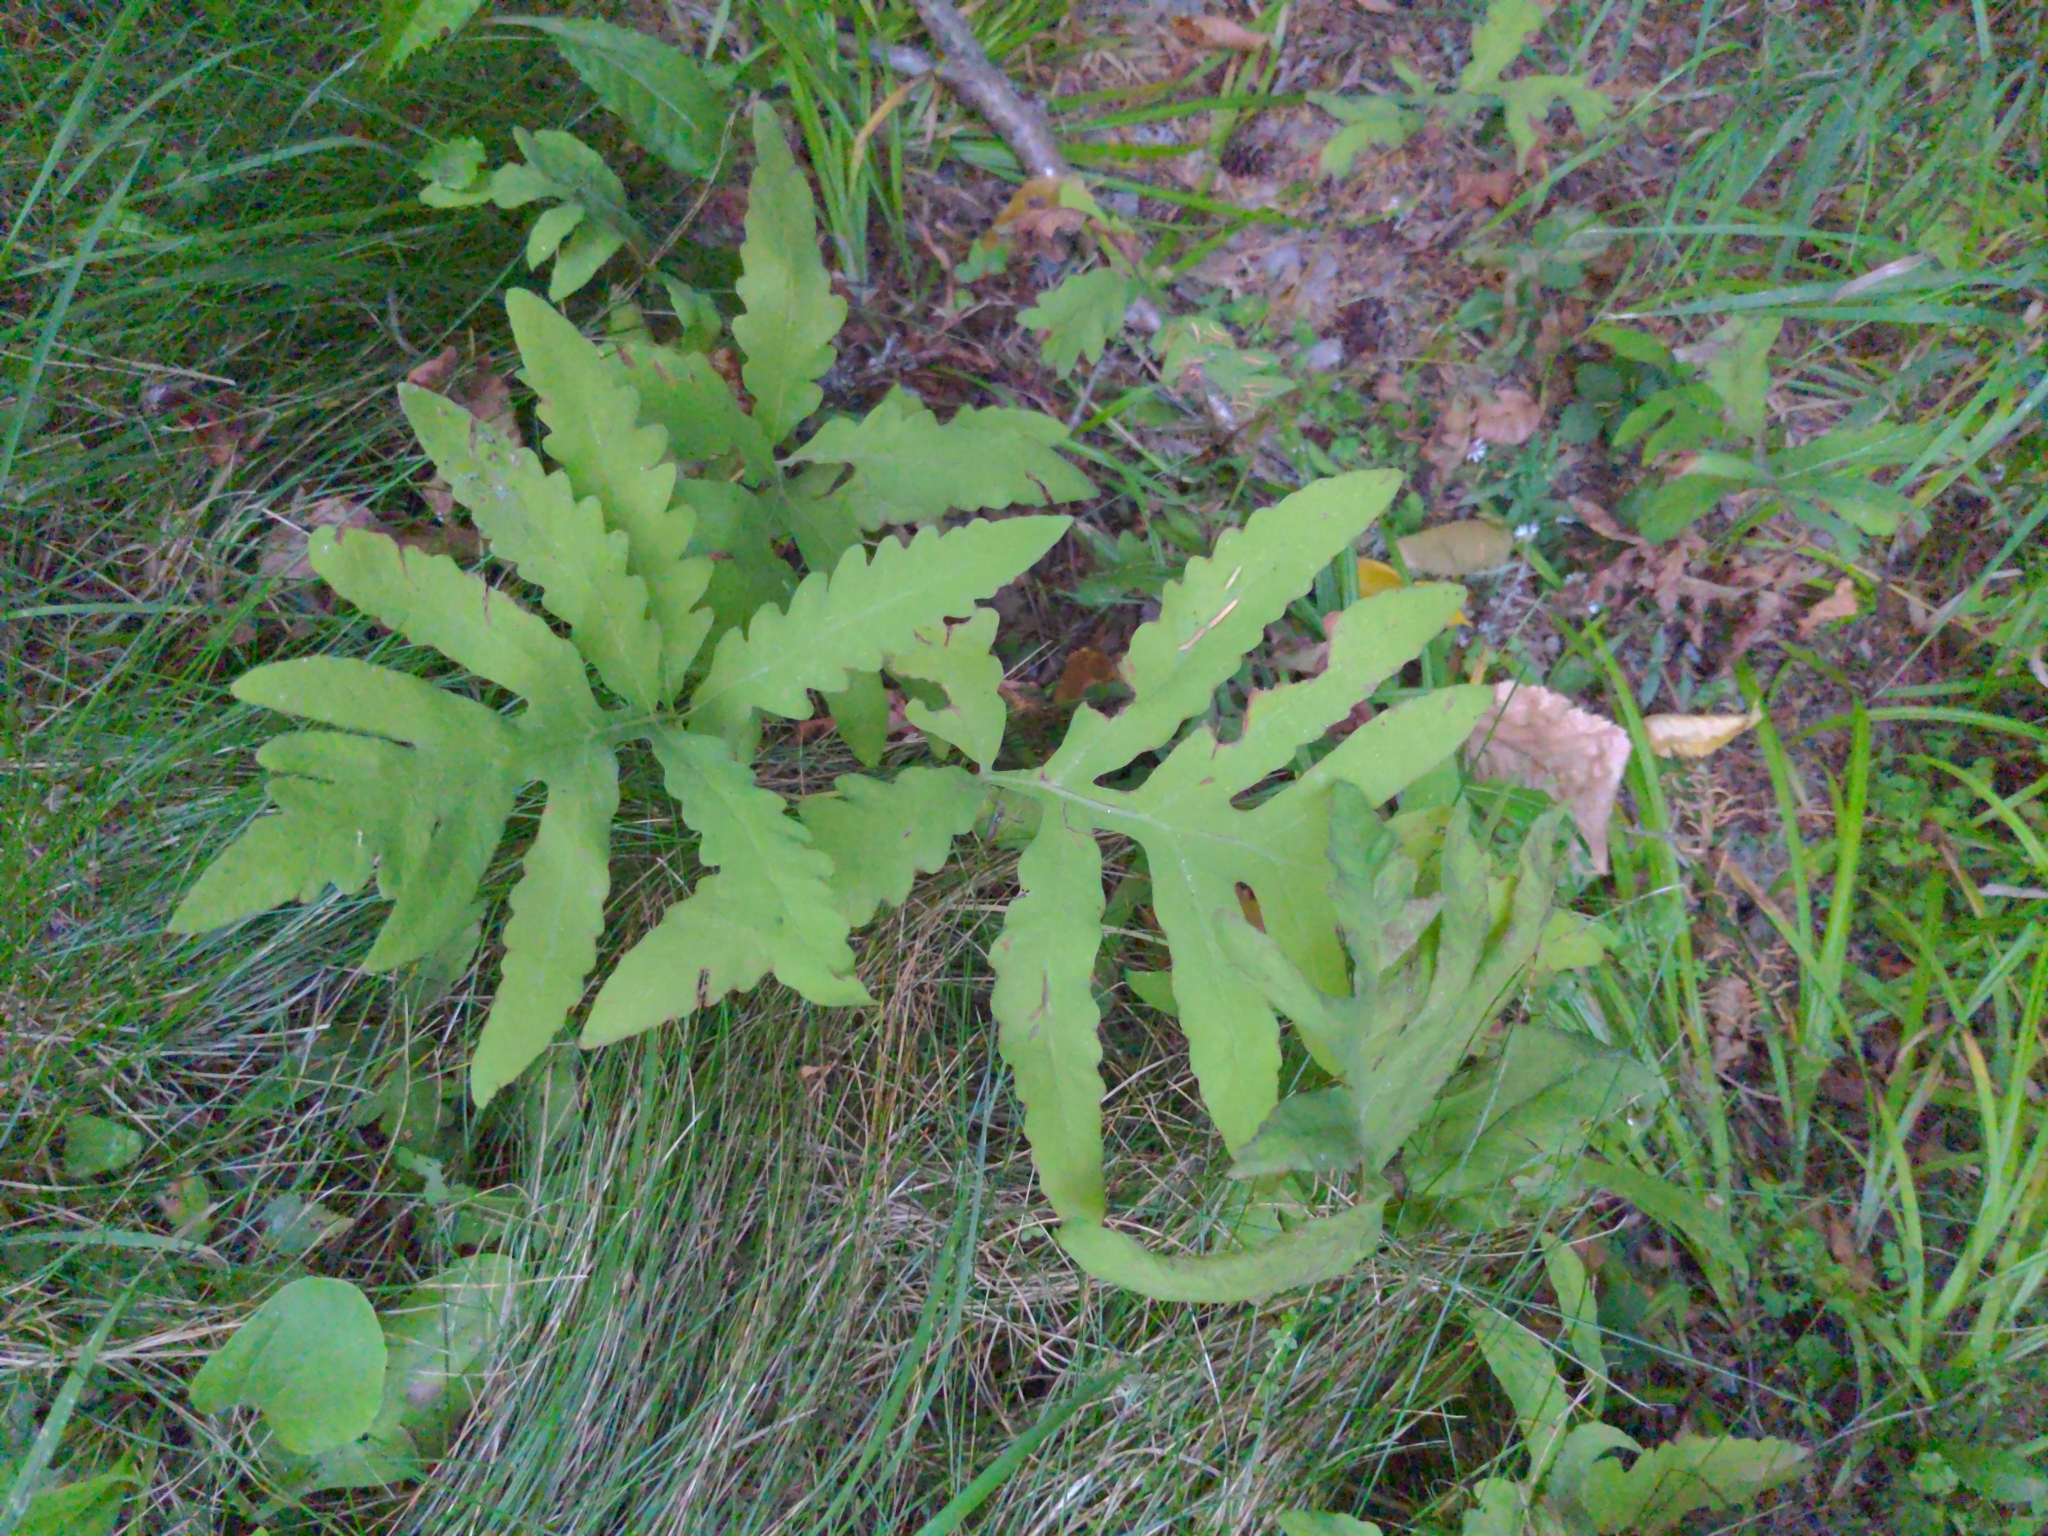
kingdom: Plantae
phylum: Tracheophyta
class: Polypodiopsida
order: Polypodiales
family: Onocleaceae
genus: Onoclea
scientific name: Onoclea sensibilis
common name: Sensitive fern
